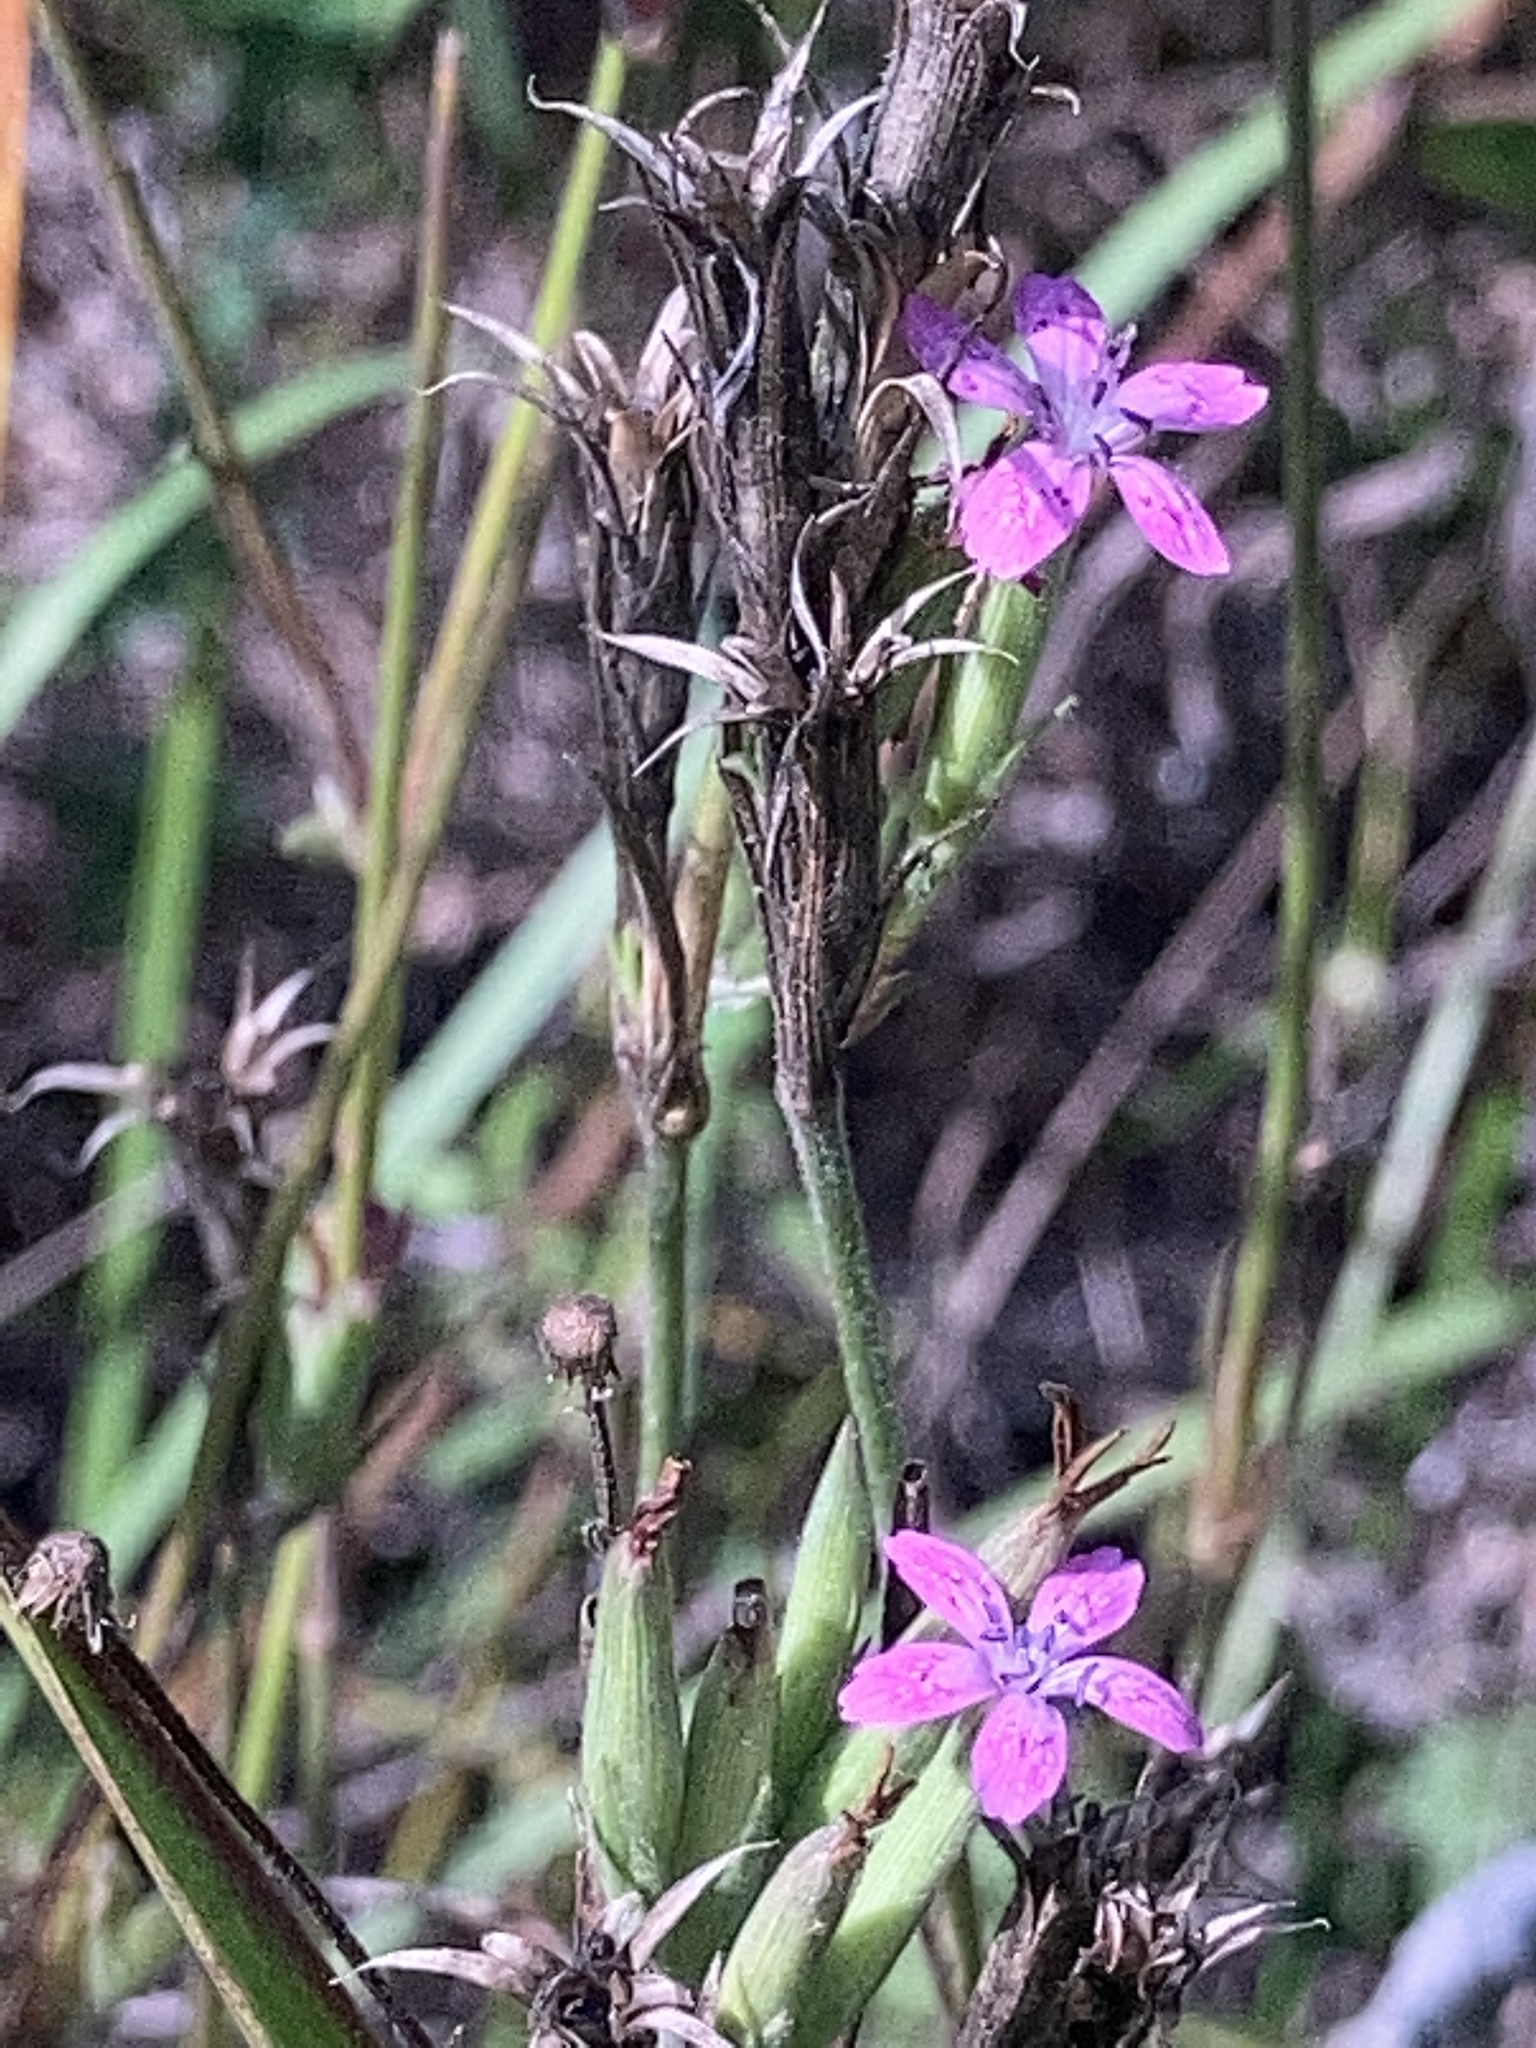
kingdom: Plantae
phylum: Tracheophyta
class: Magnoliopsida
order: Caryophyllales
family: Caryophyllaceae
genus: Dianthus
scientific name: Dianthus armeria
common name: Deptford pink
